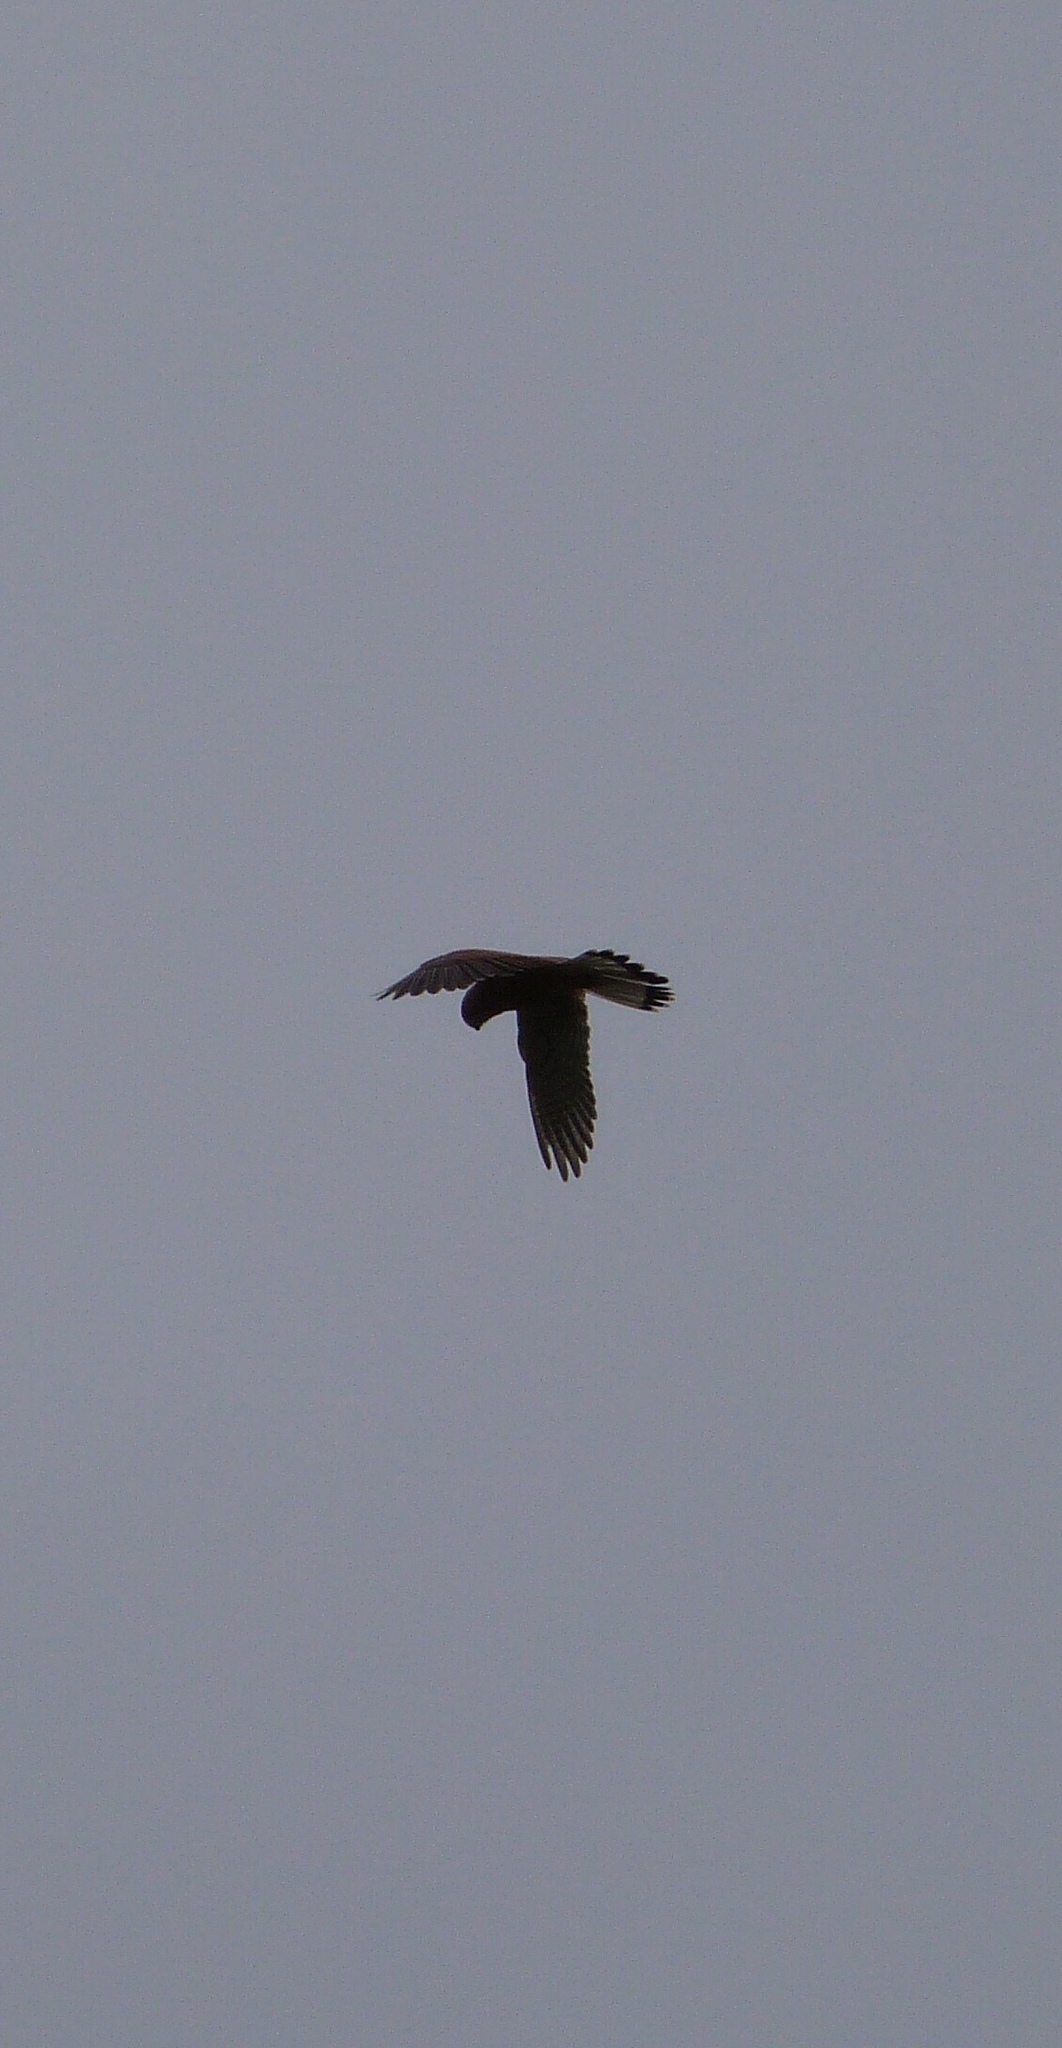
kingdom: Animalia
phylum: Chordata
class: Aves
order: Falconiformes
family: Falconidae
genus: Falco
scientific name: Falco tinnunculus
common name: Common kestrel
